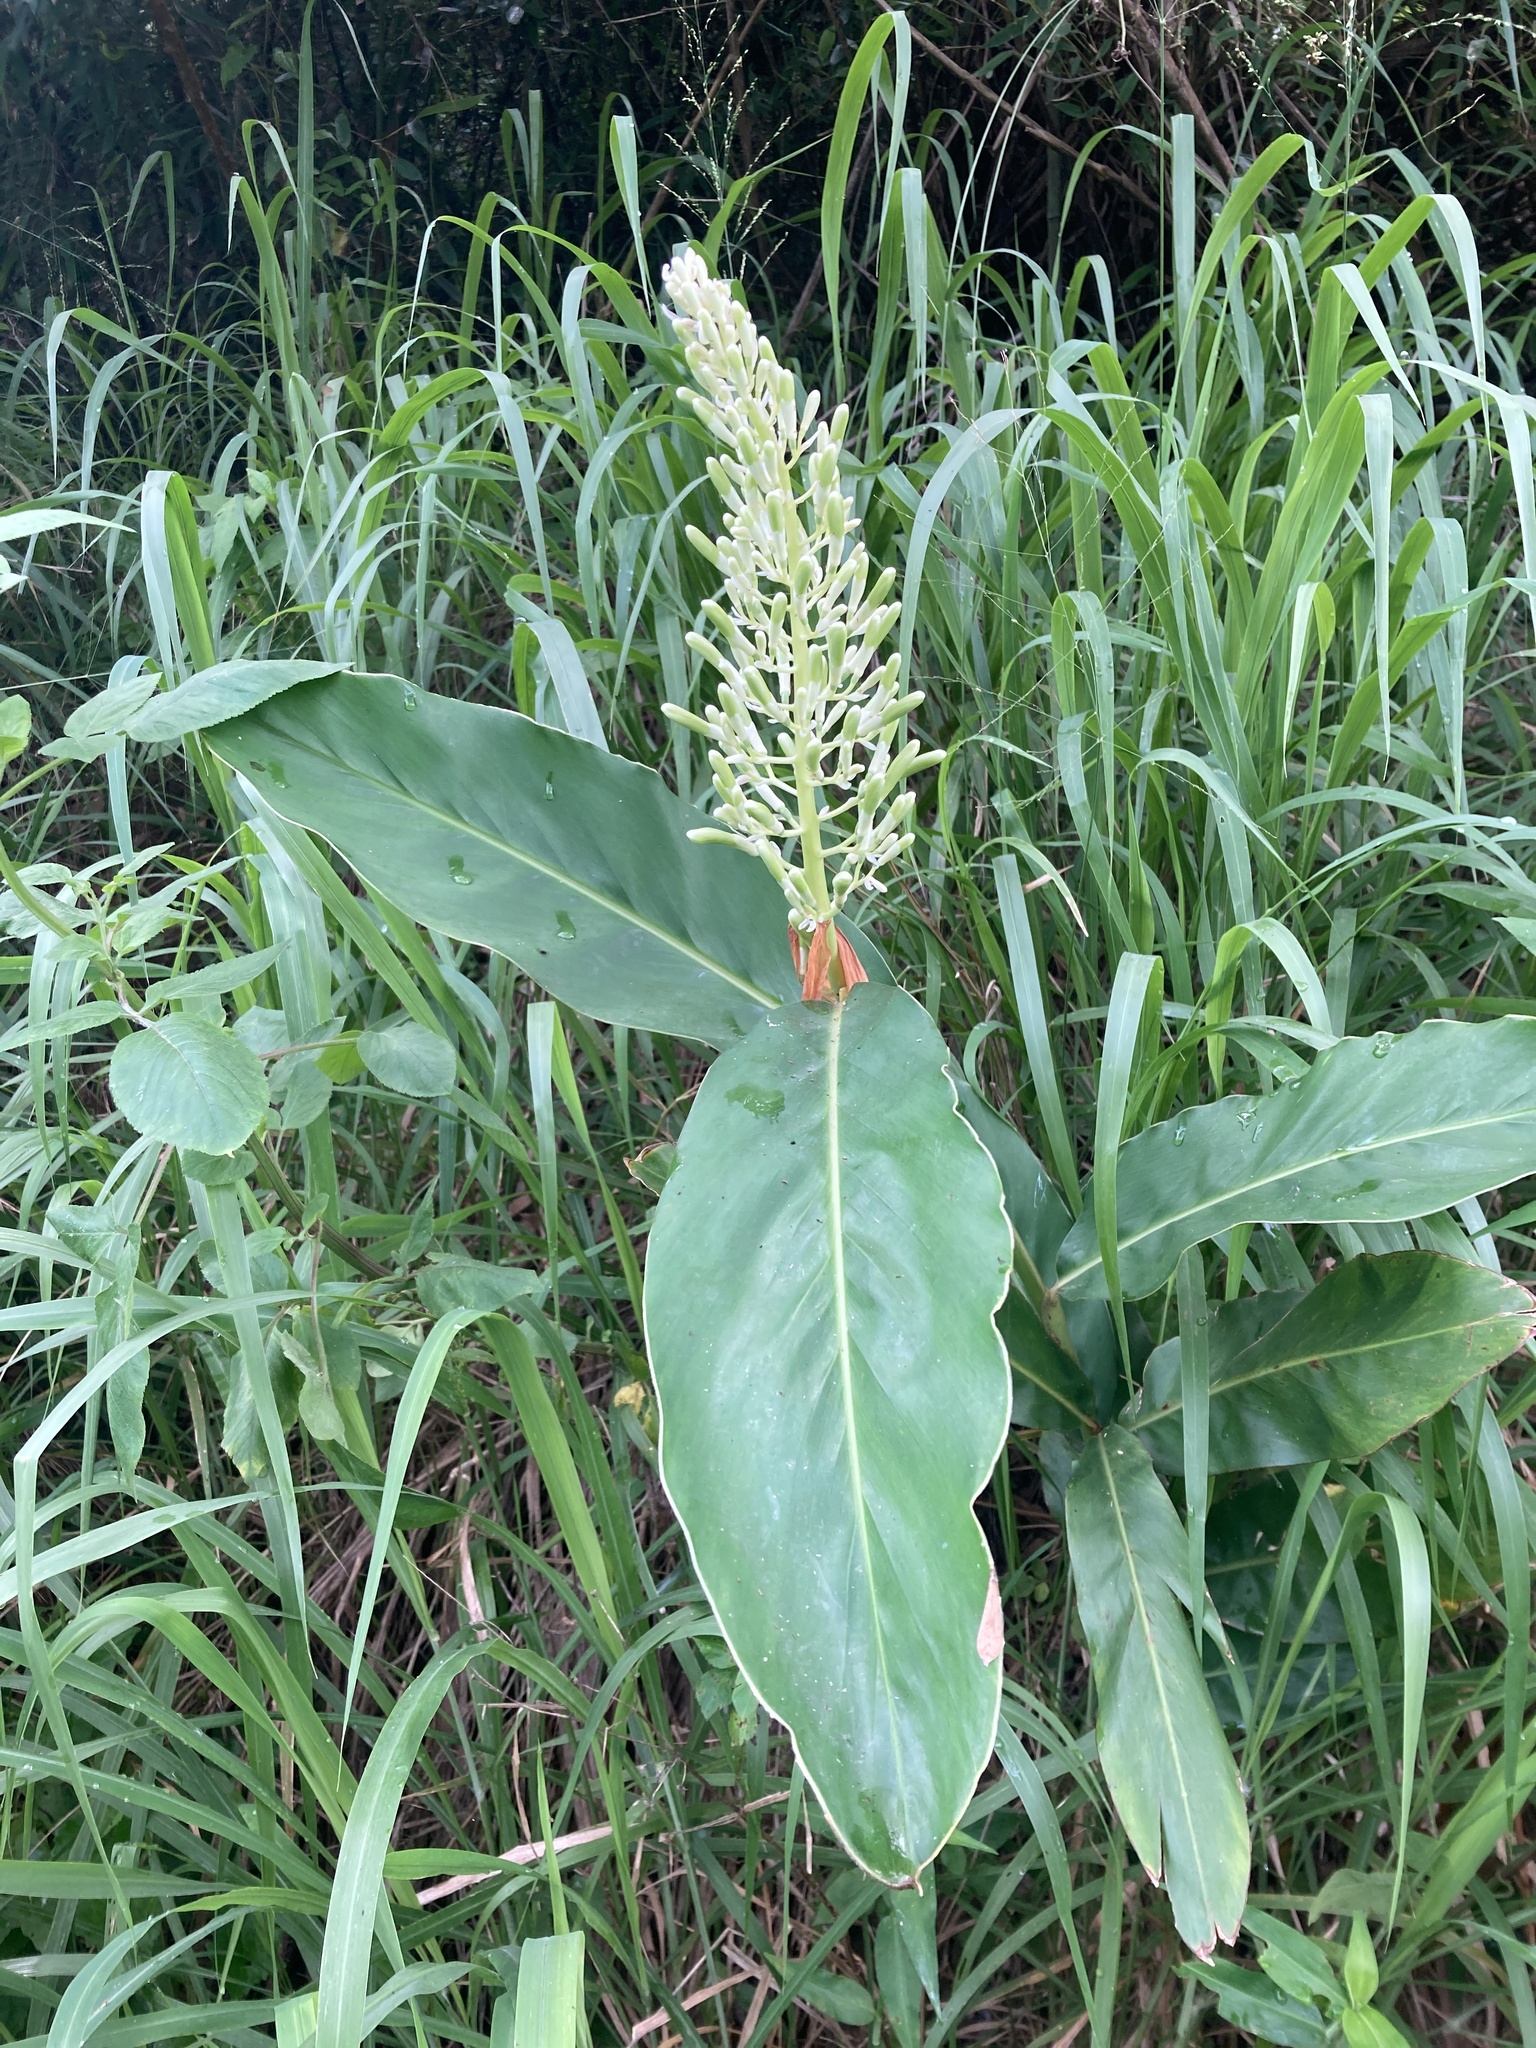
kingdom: Plantae
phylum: Tracheophyta
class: Liliopsida
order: Zingiberales
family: Zingiberaceae
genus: Alpinia
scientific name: Alpinia galanga
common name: Siamese-ginger
